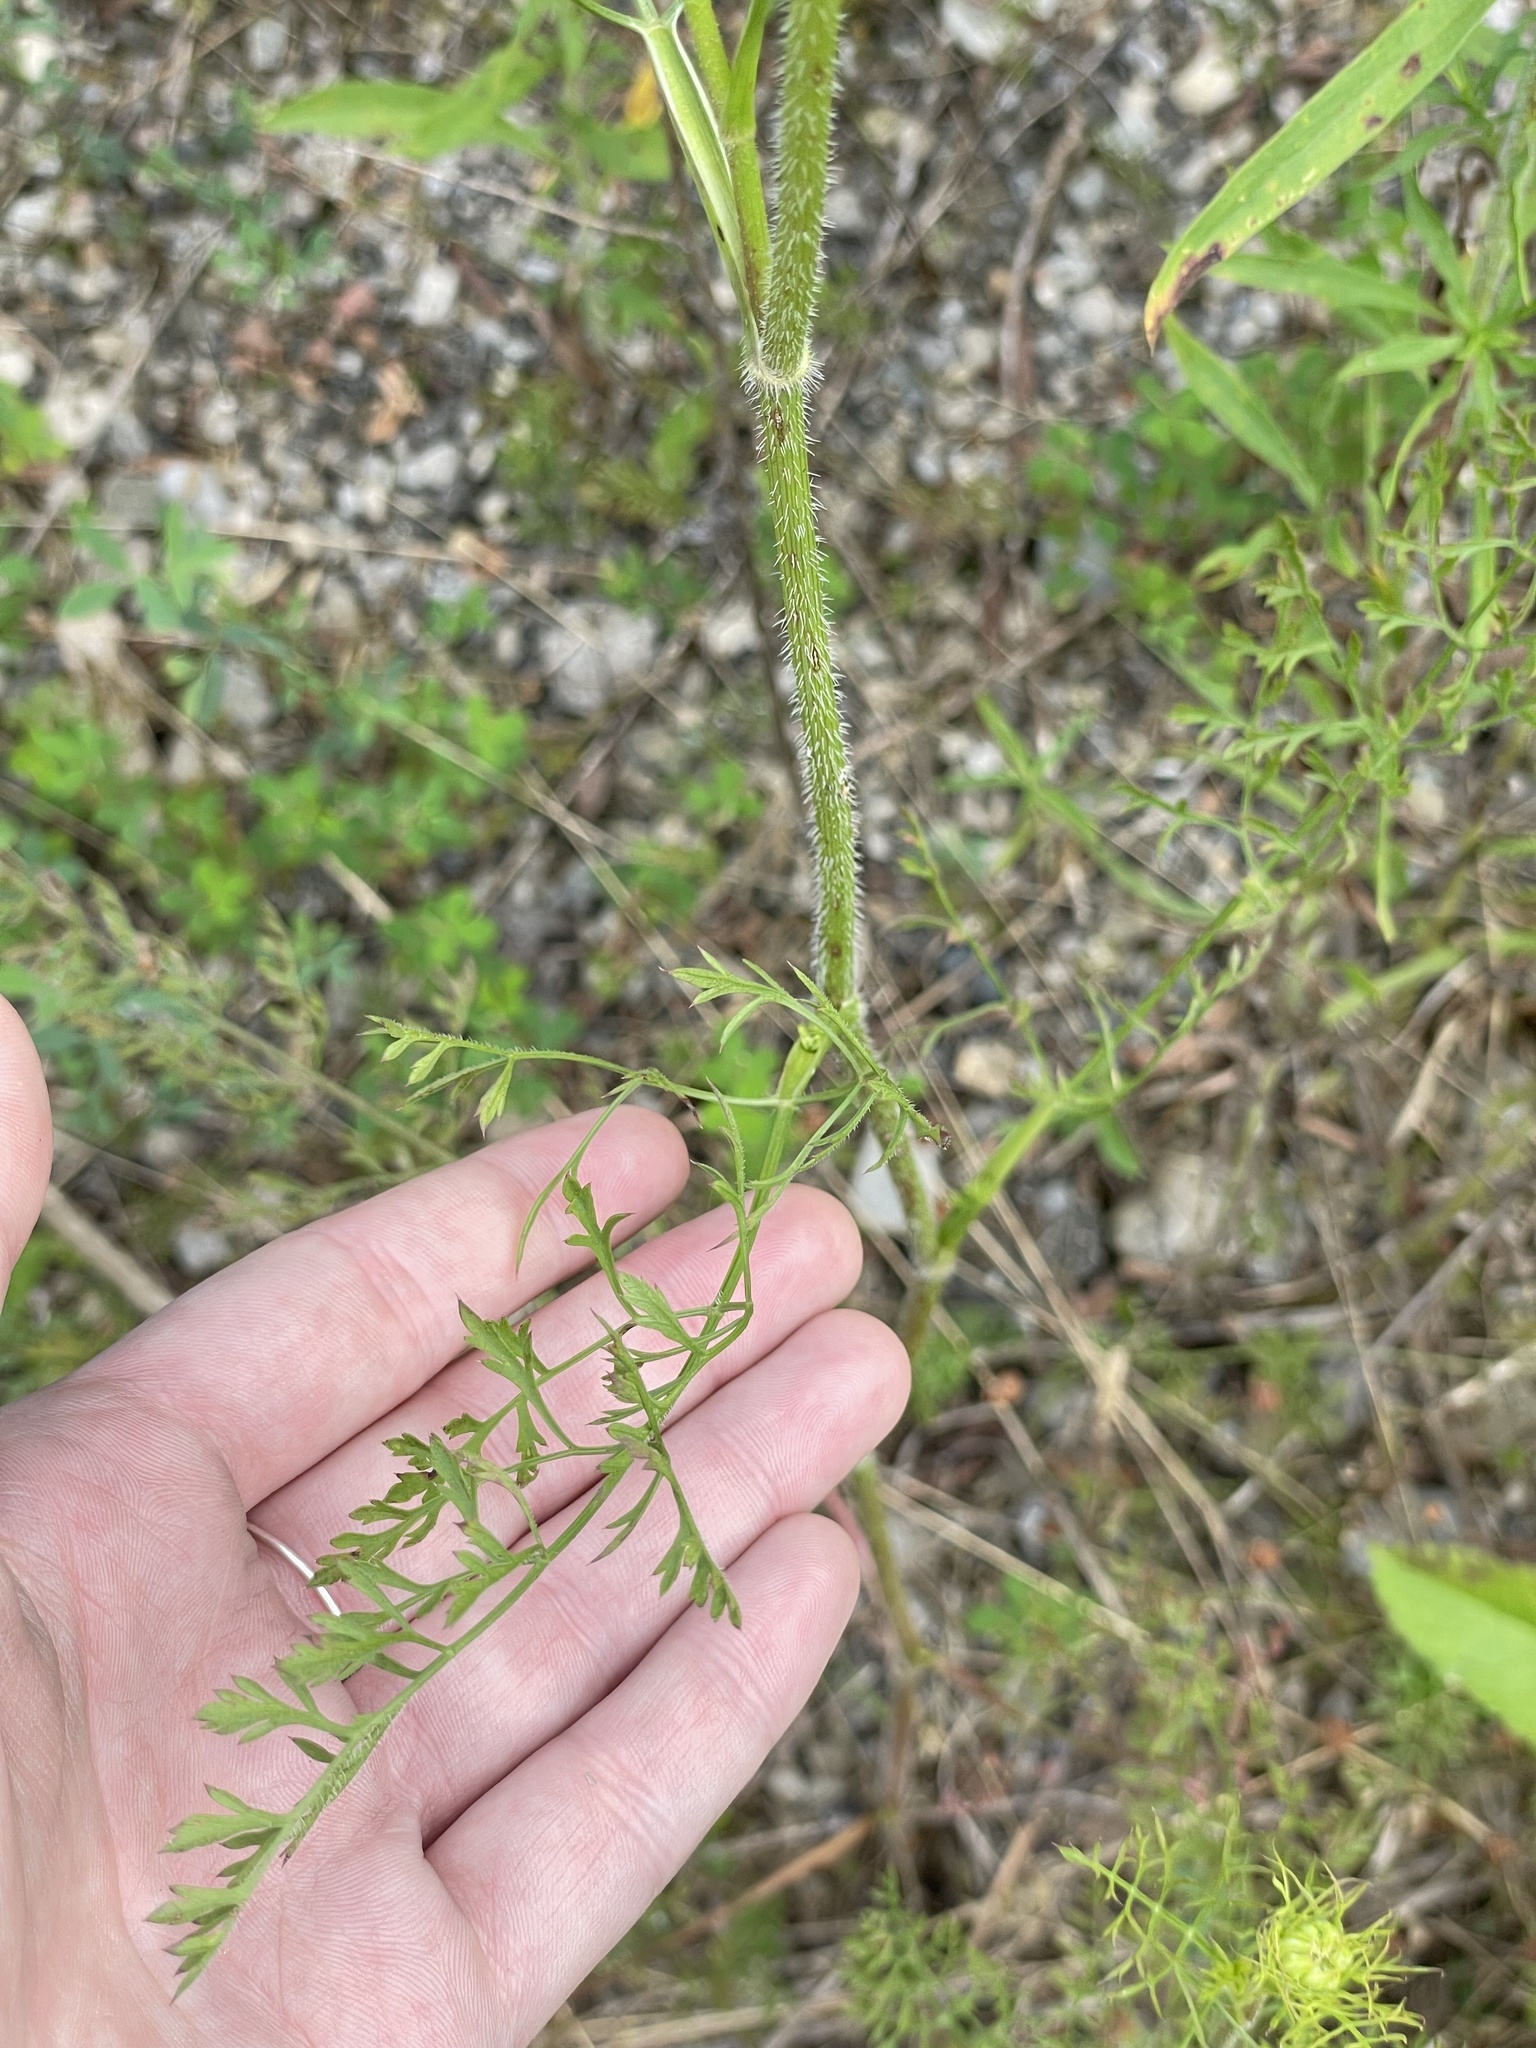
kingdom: Plantae
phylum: Tracheophyta
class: Magnoliopsida
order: Apiales
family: Apiaceae
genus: Daucus
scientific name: Daucus carota
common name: Wild carrot
